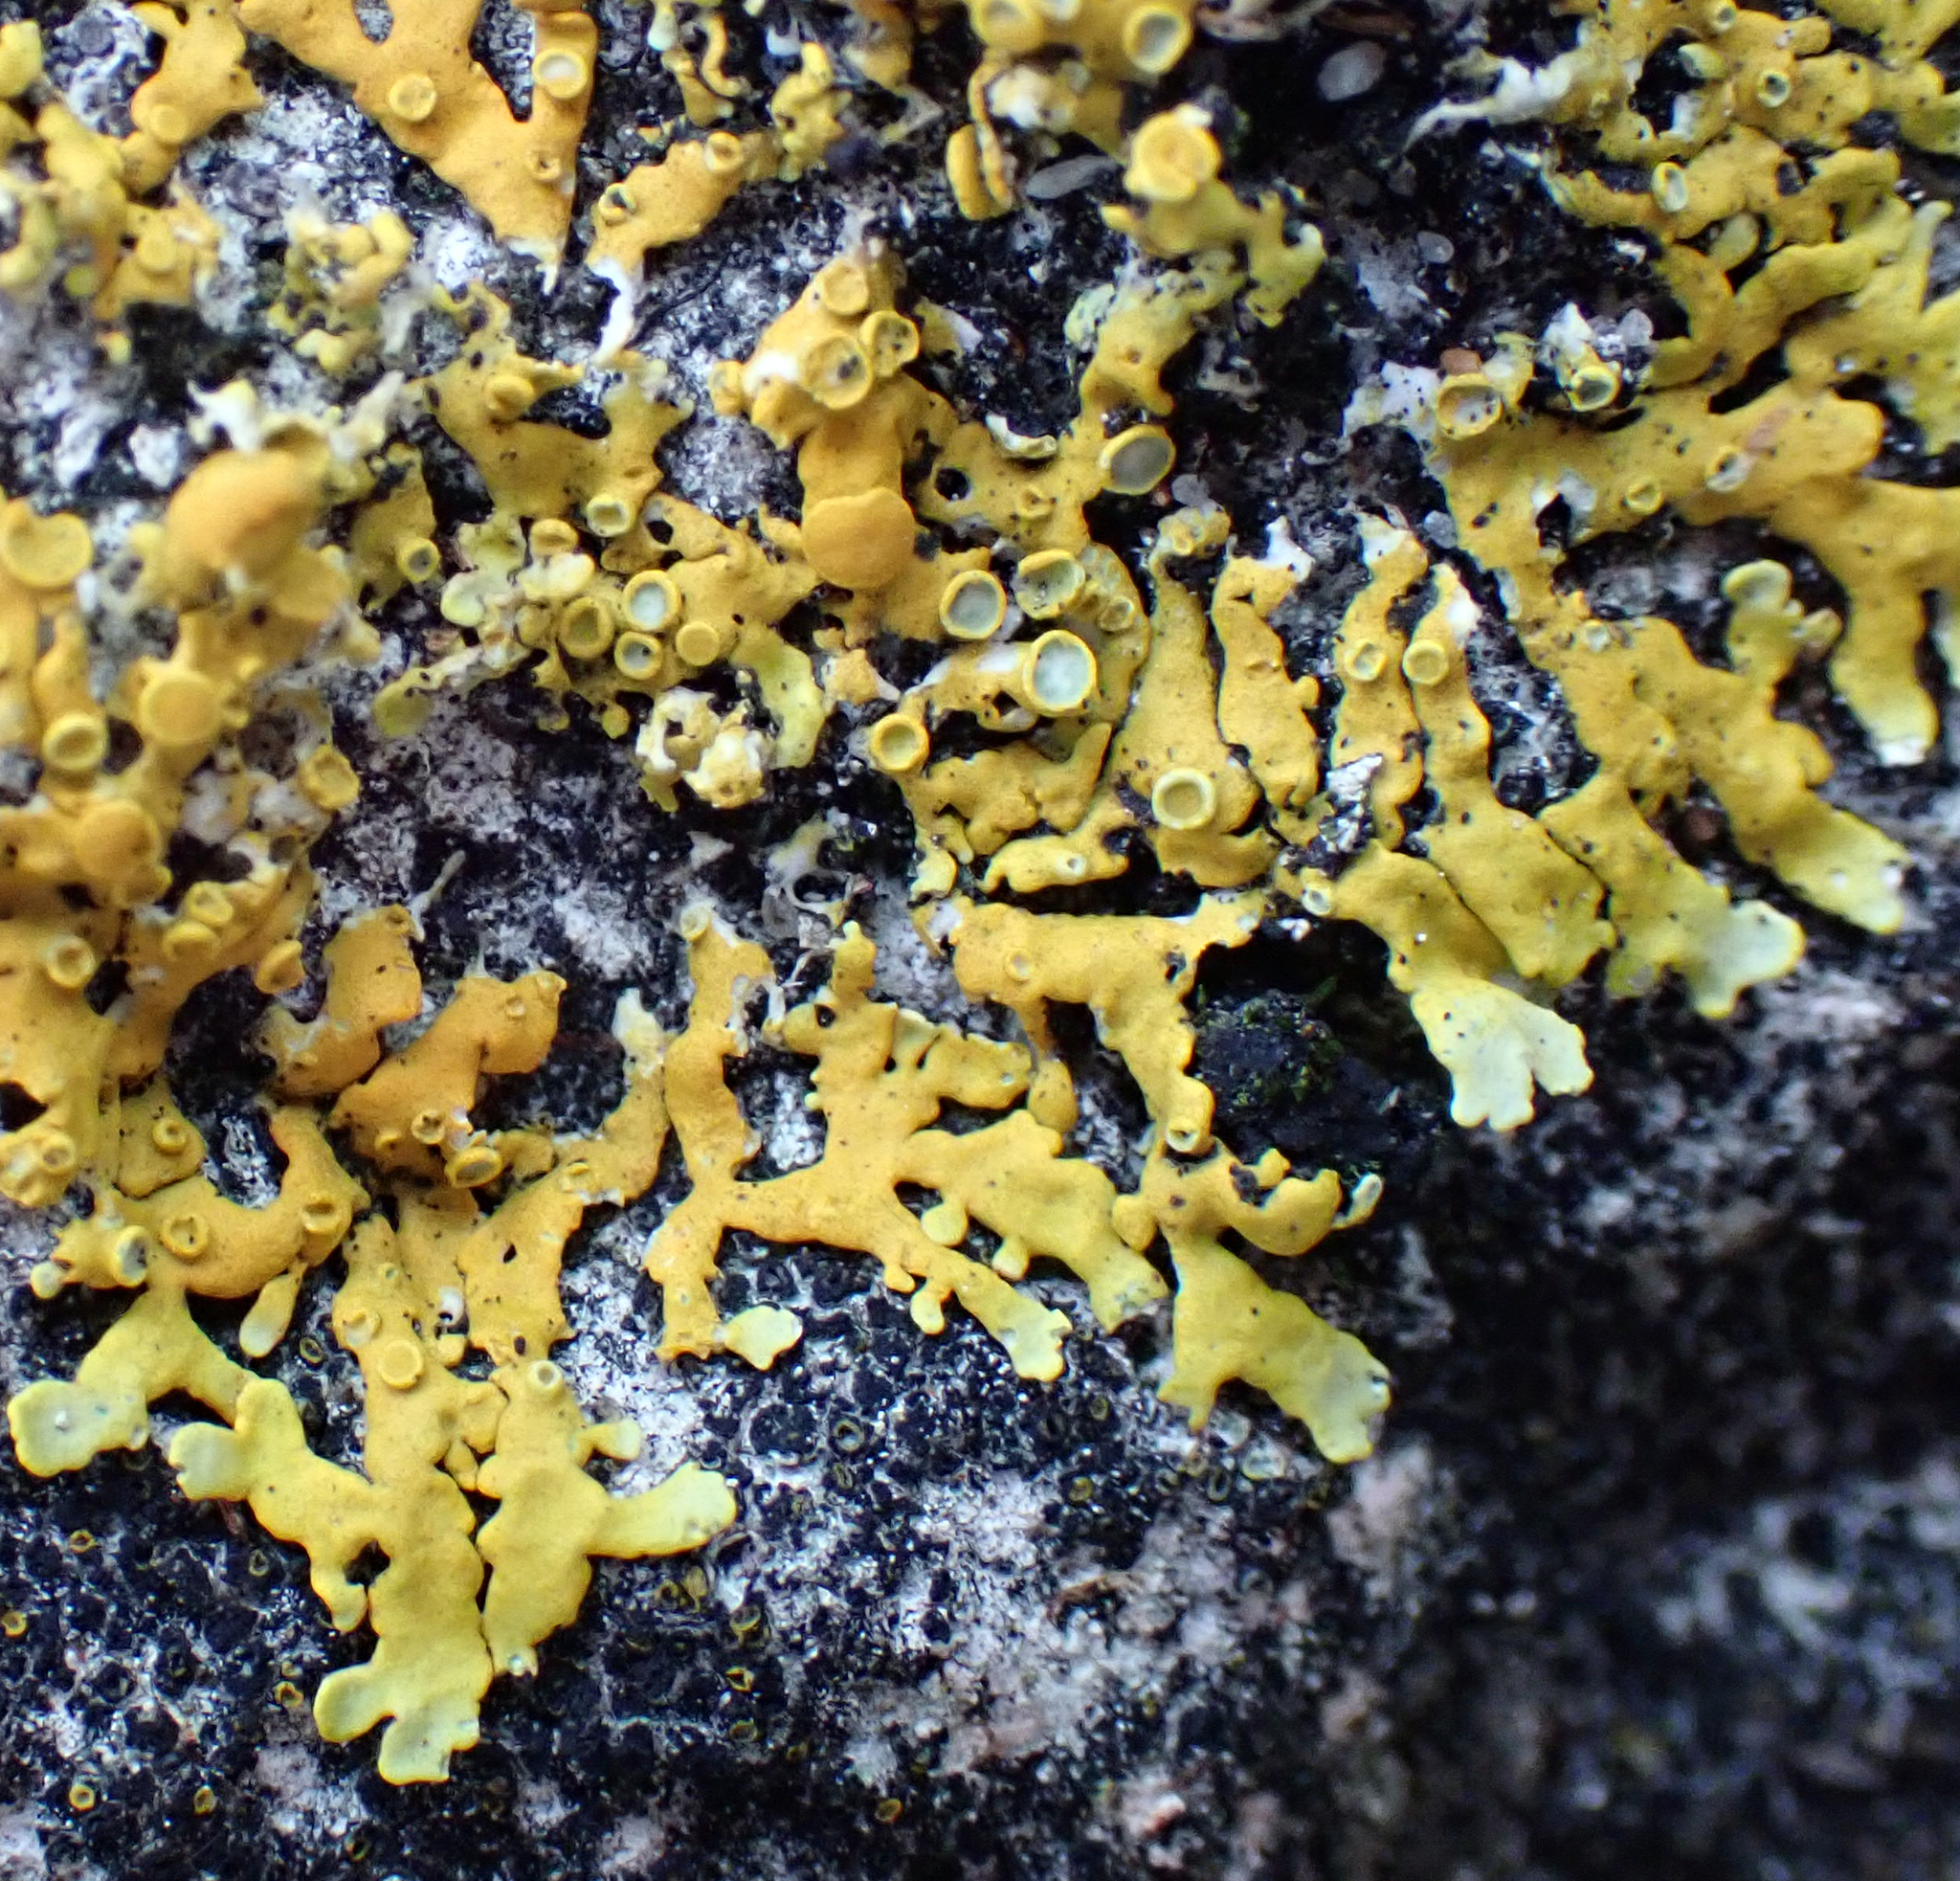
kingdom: Fungi
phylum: Ascomycota
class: Lecanoromycetes
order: Teloschistales
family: Teloschistaceae
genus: Dufourea
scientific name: Dufourea ligulata
